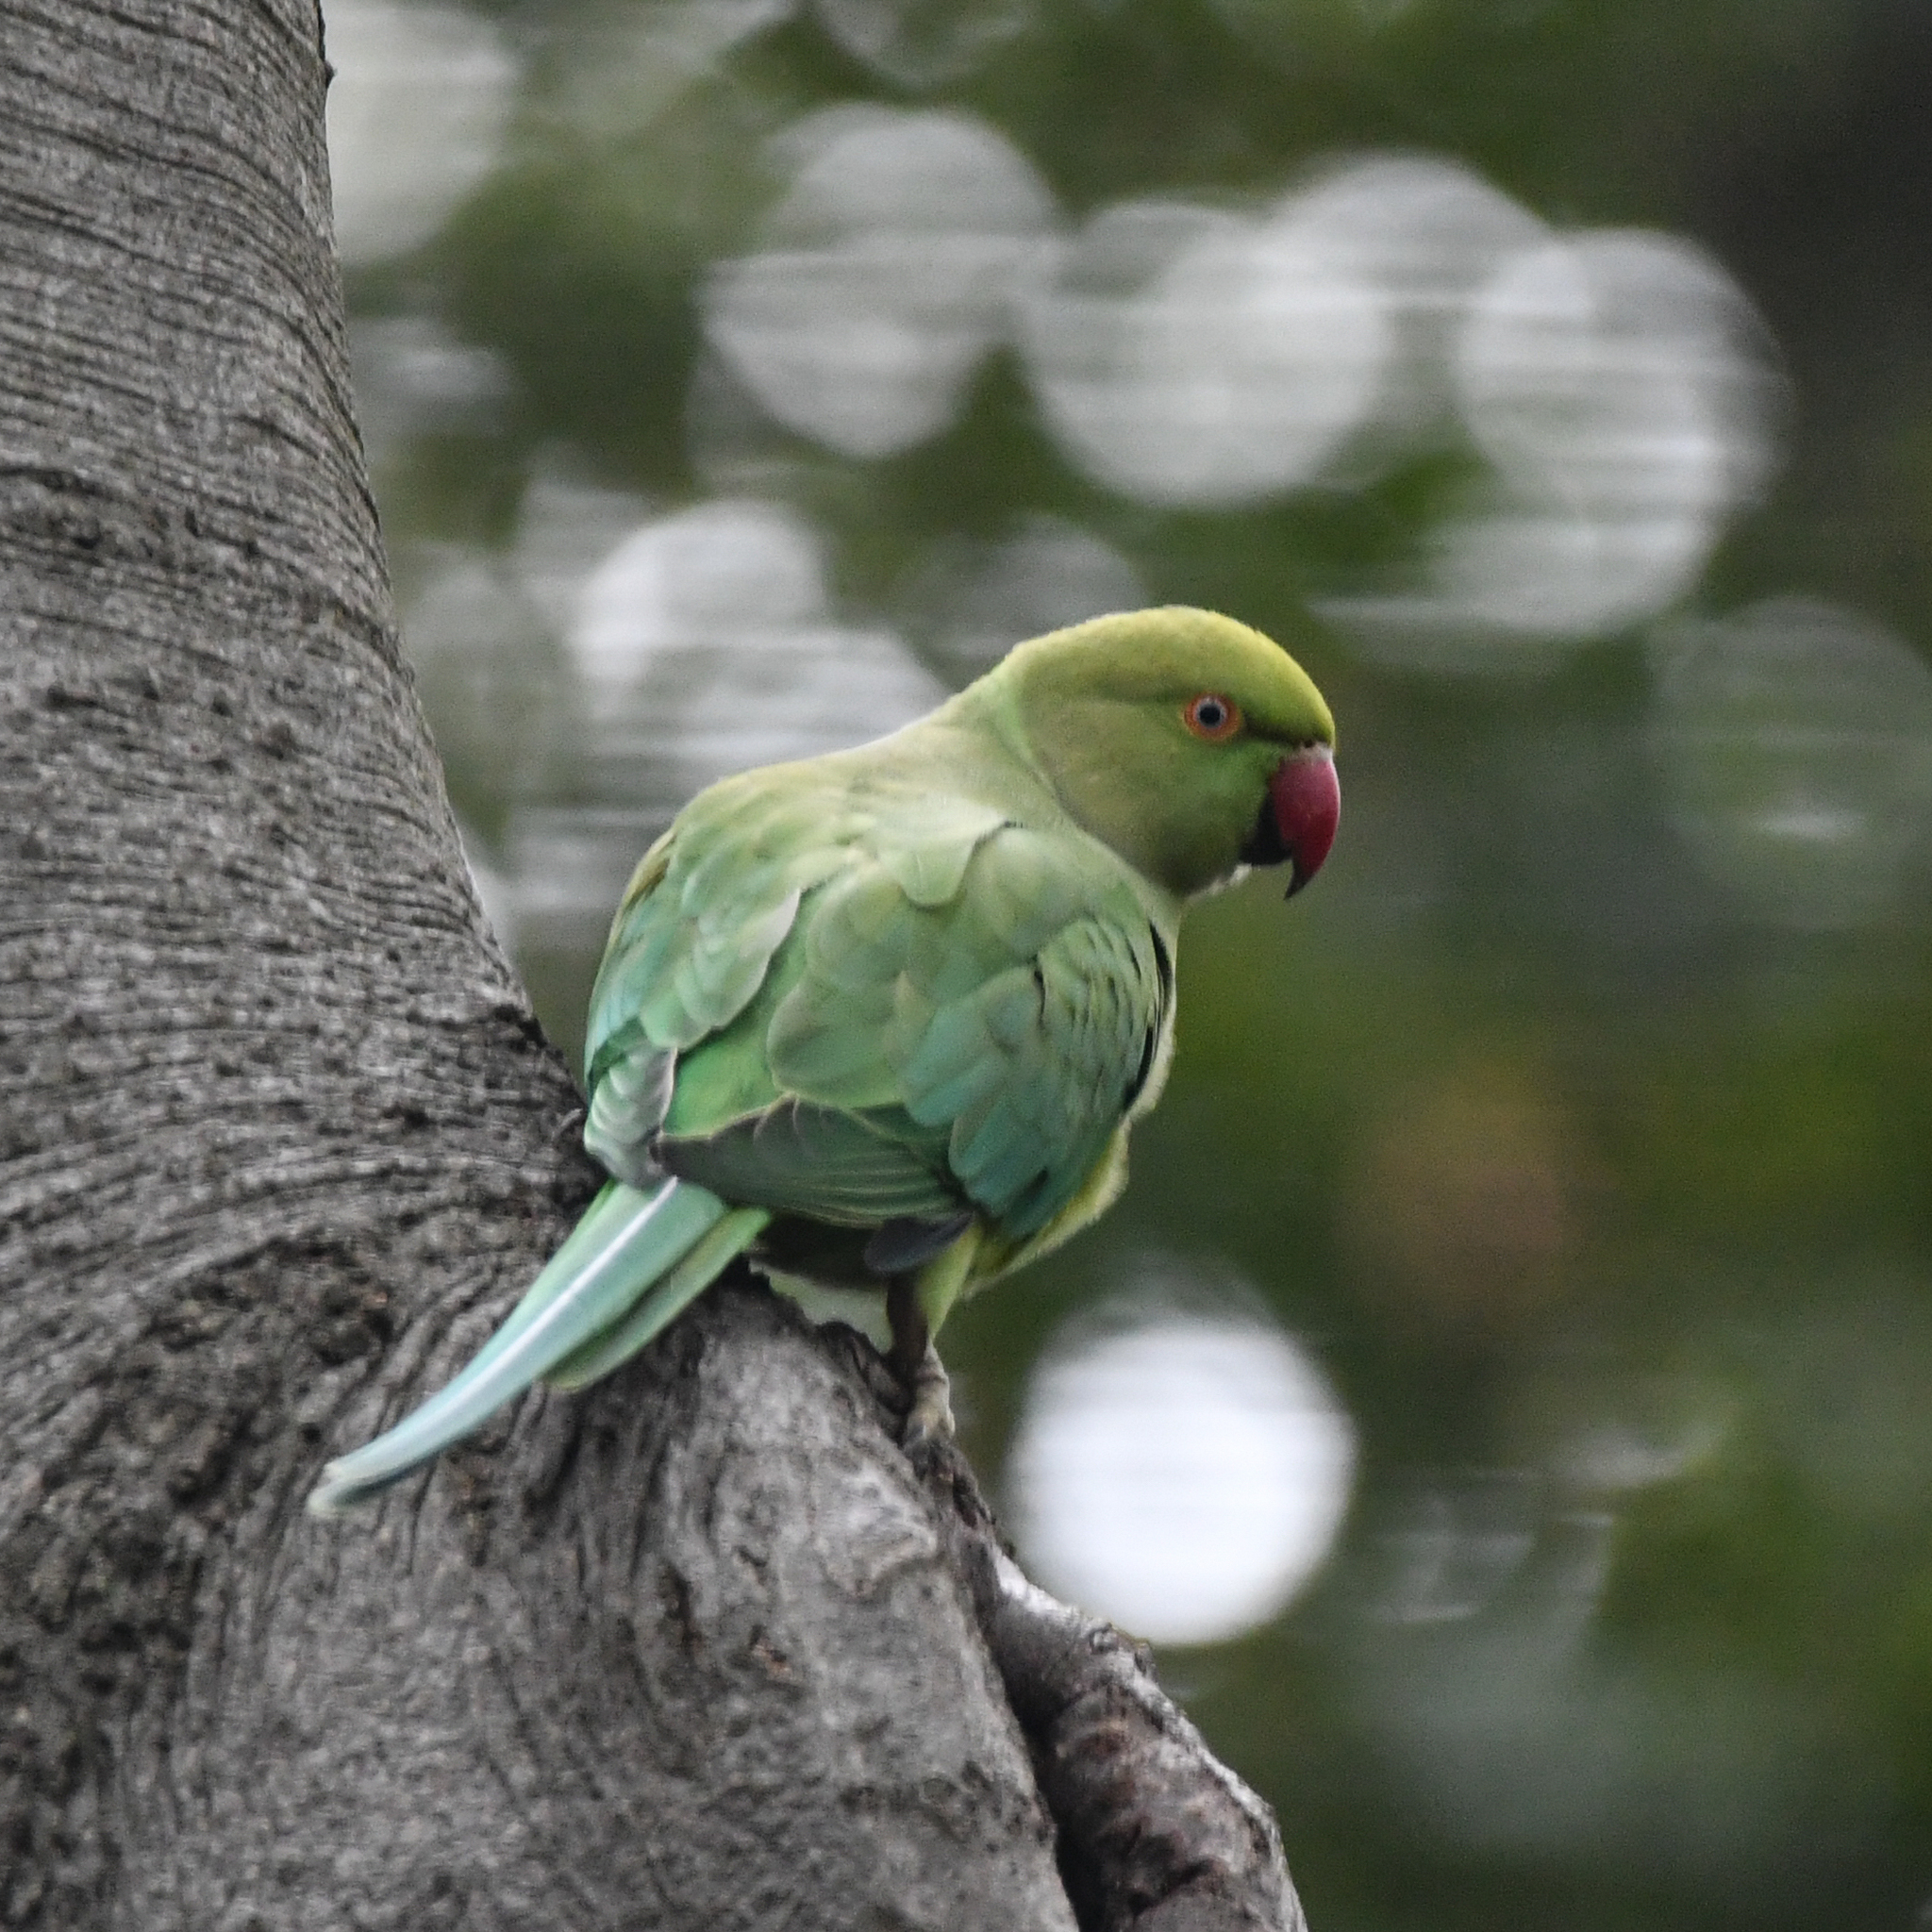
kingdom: Animalia
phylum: Chordata
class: Aves
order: Psittaciformes
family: Psittacidae
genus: Psittacula
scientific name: Psittacula krameri
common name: Rose-ringed parakeet
